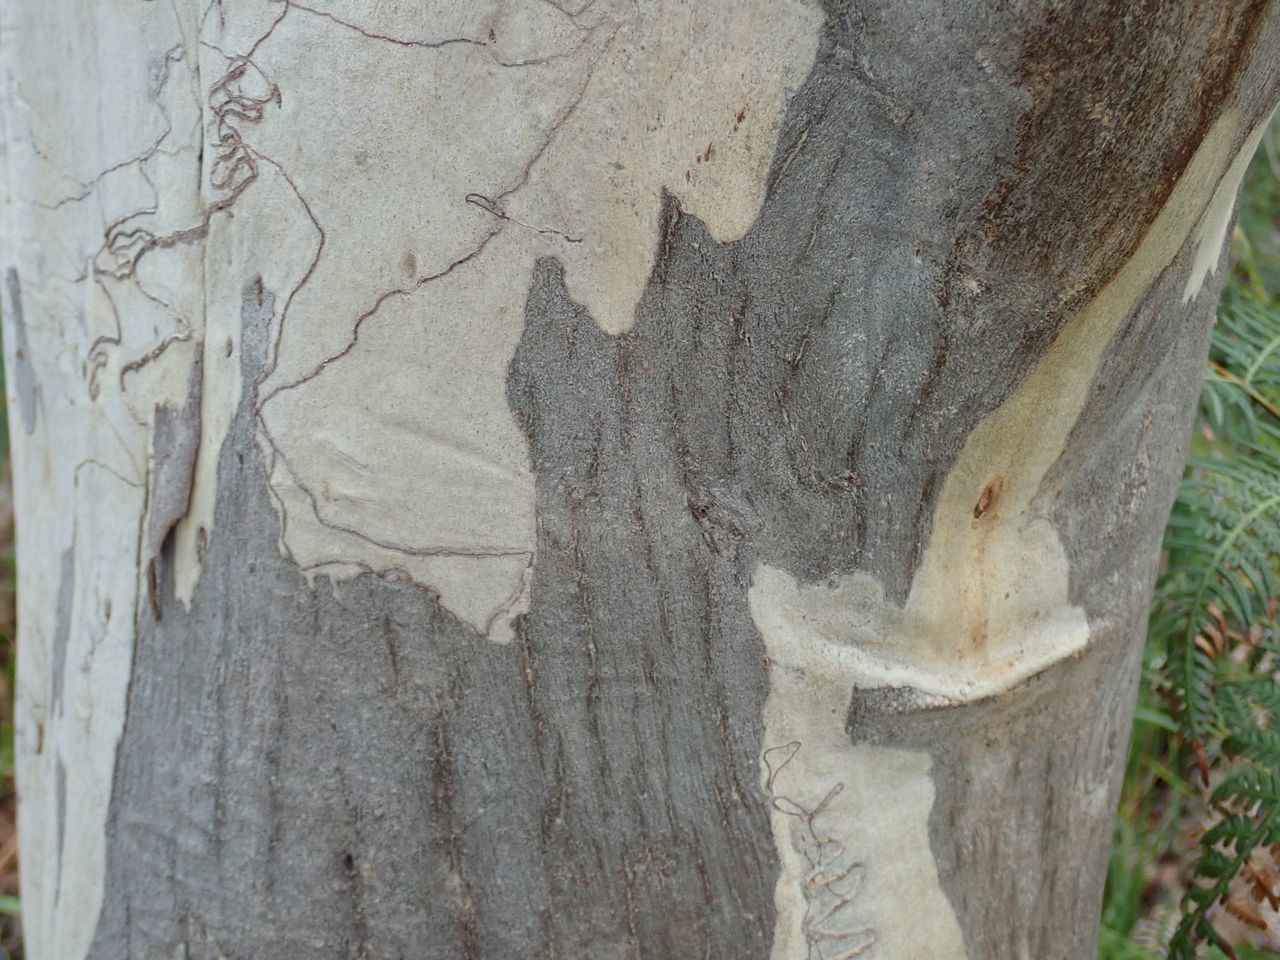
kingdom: Plantae
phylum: Tracheophyta
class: Magnoliopsida
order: Myrtales
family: Myrtaceae
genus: Eucalyptus
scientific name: Eucalyptus racemosa
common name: Scribbly gum
